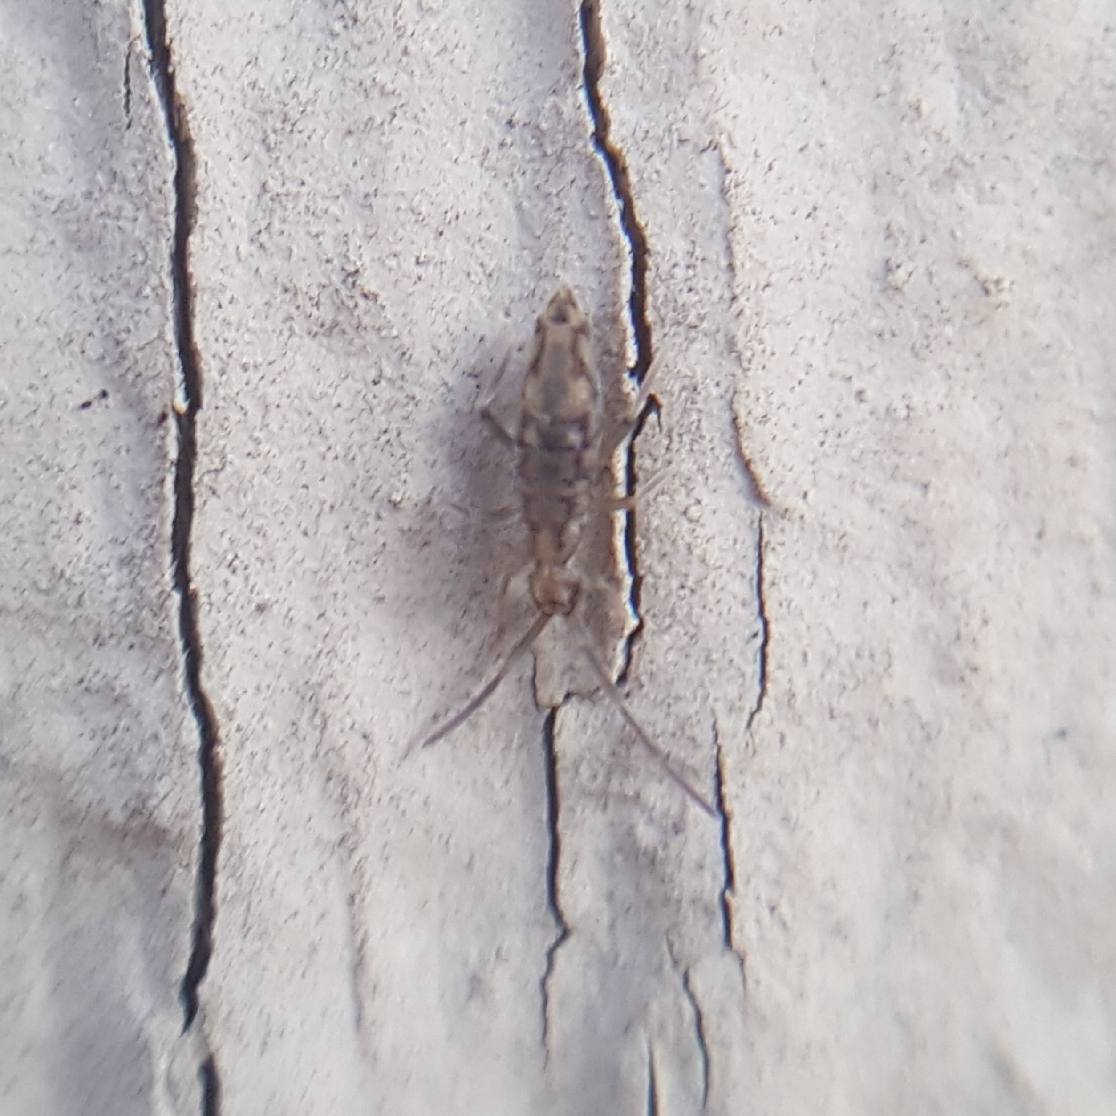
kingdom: Animalia
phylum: Arthropoda
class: Collembola
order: Entomobryomorpha
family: Entomobryidae
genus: Entomobrya
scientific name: Entomobrya katzi
